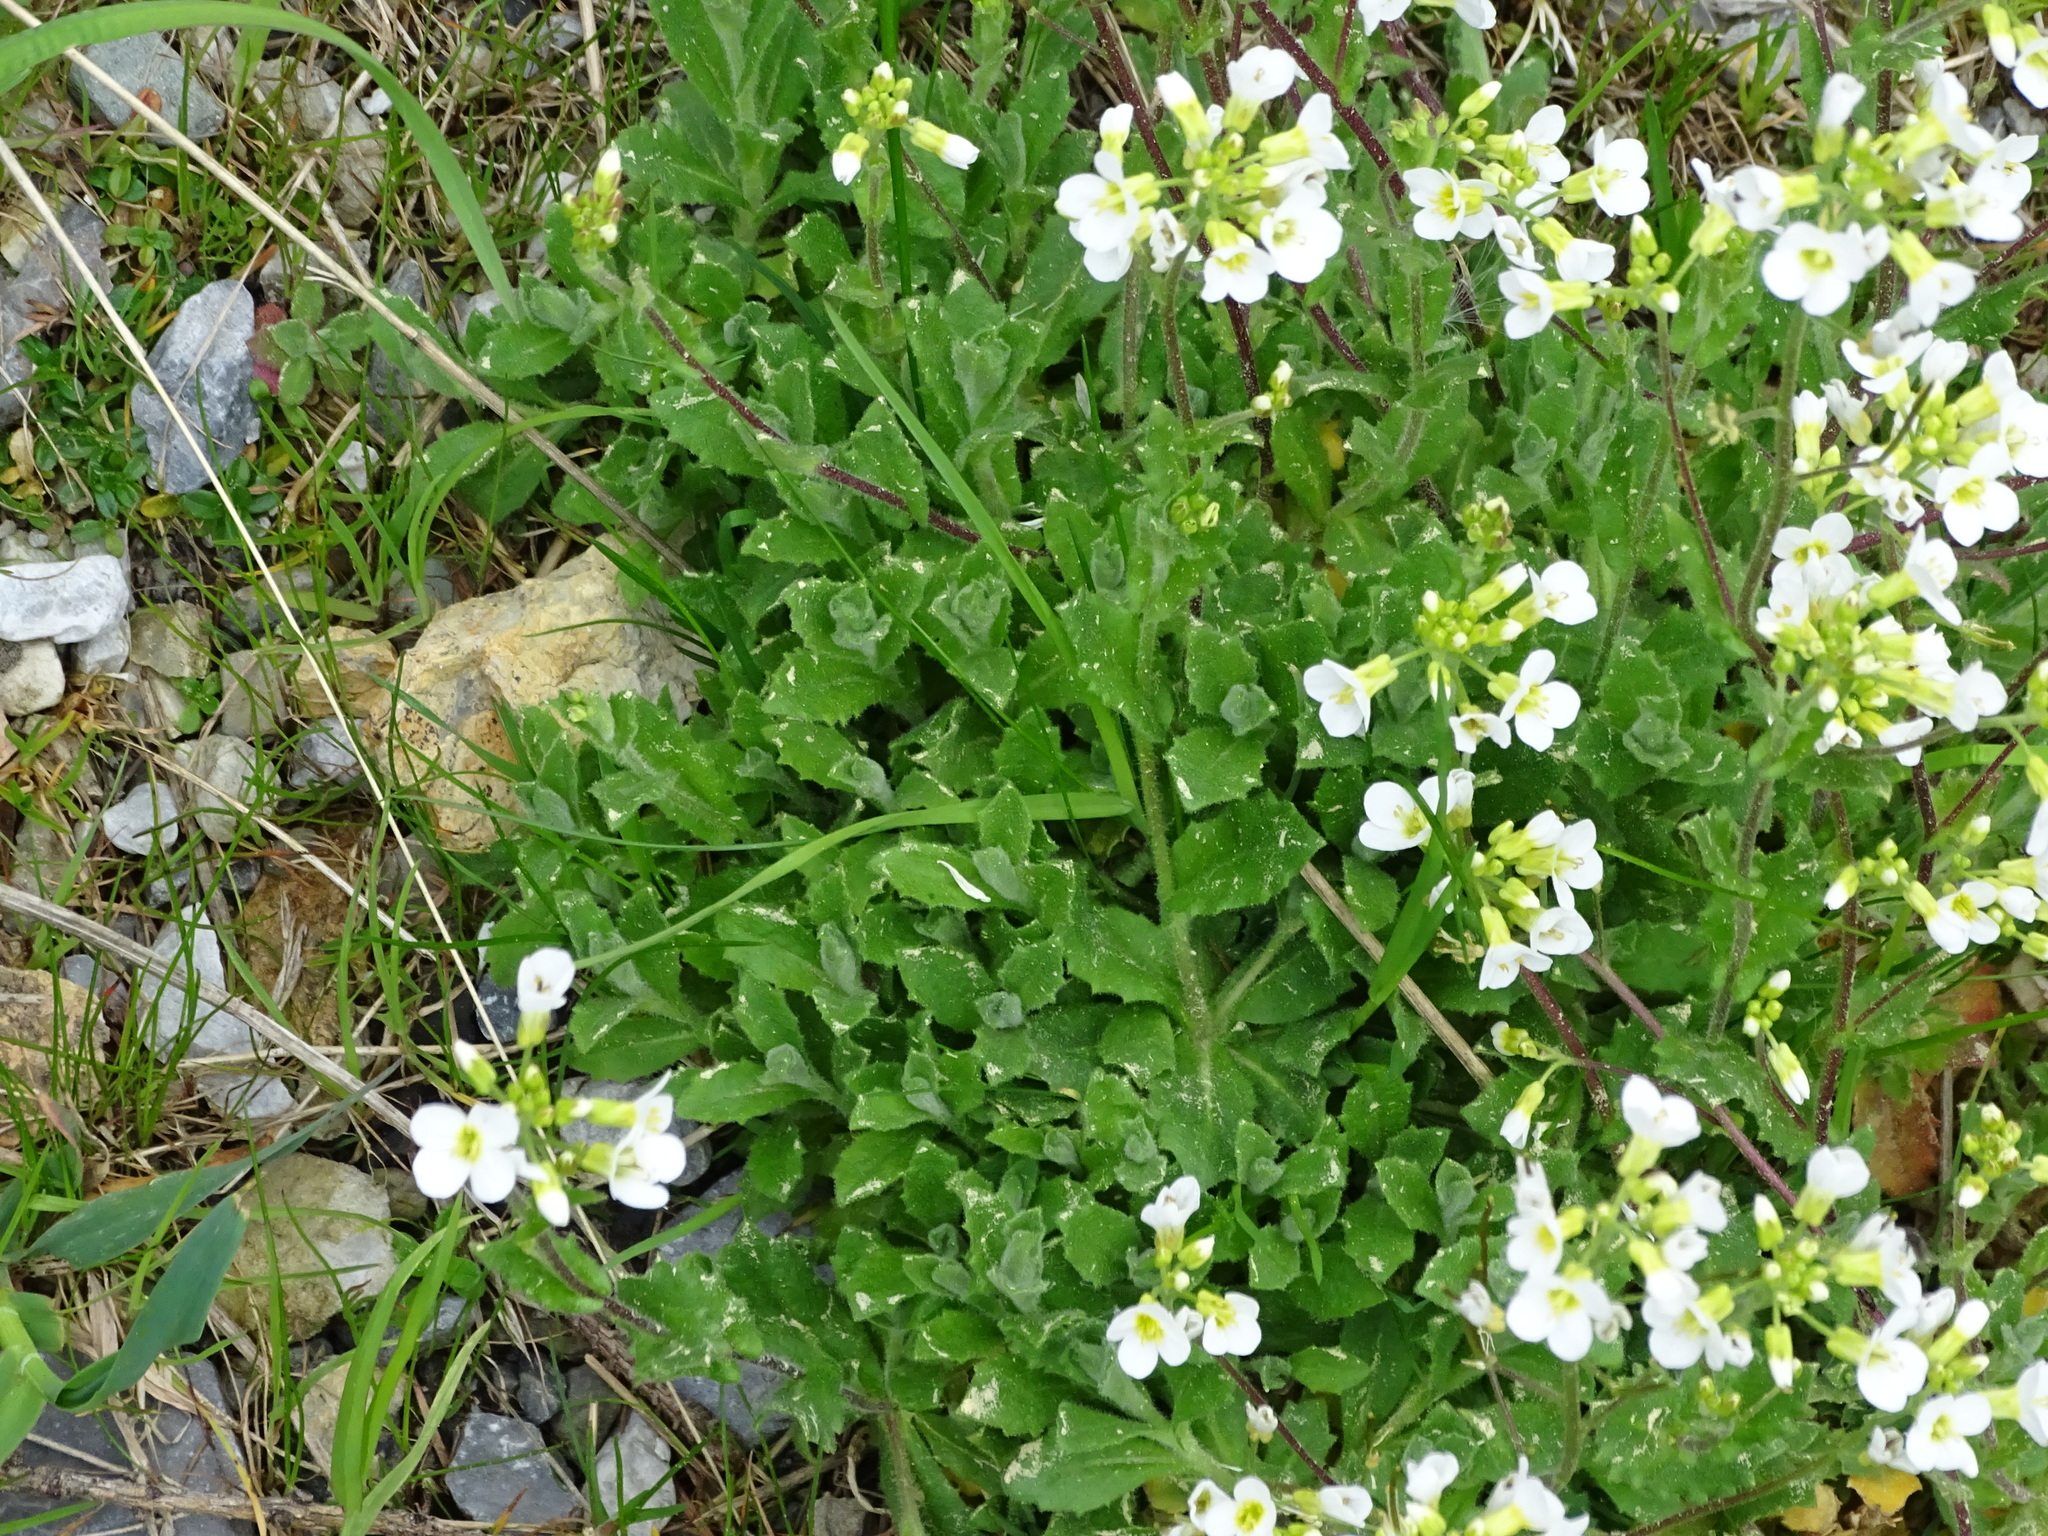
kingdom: Plantae
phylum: Tracheophyta
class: Magnoliopsida
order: Brassicales
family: Brassicaceae
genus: Arabis
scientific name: Arabis alpina
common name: Alpine rock-cress
